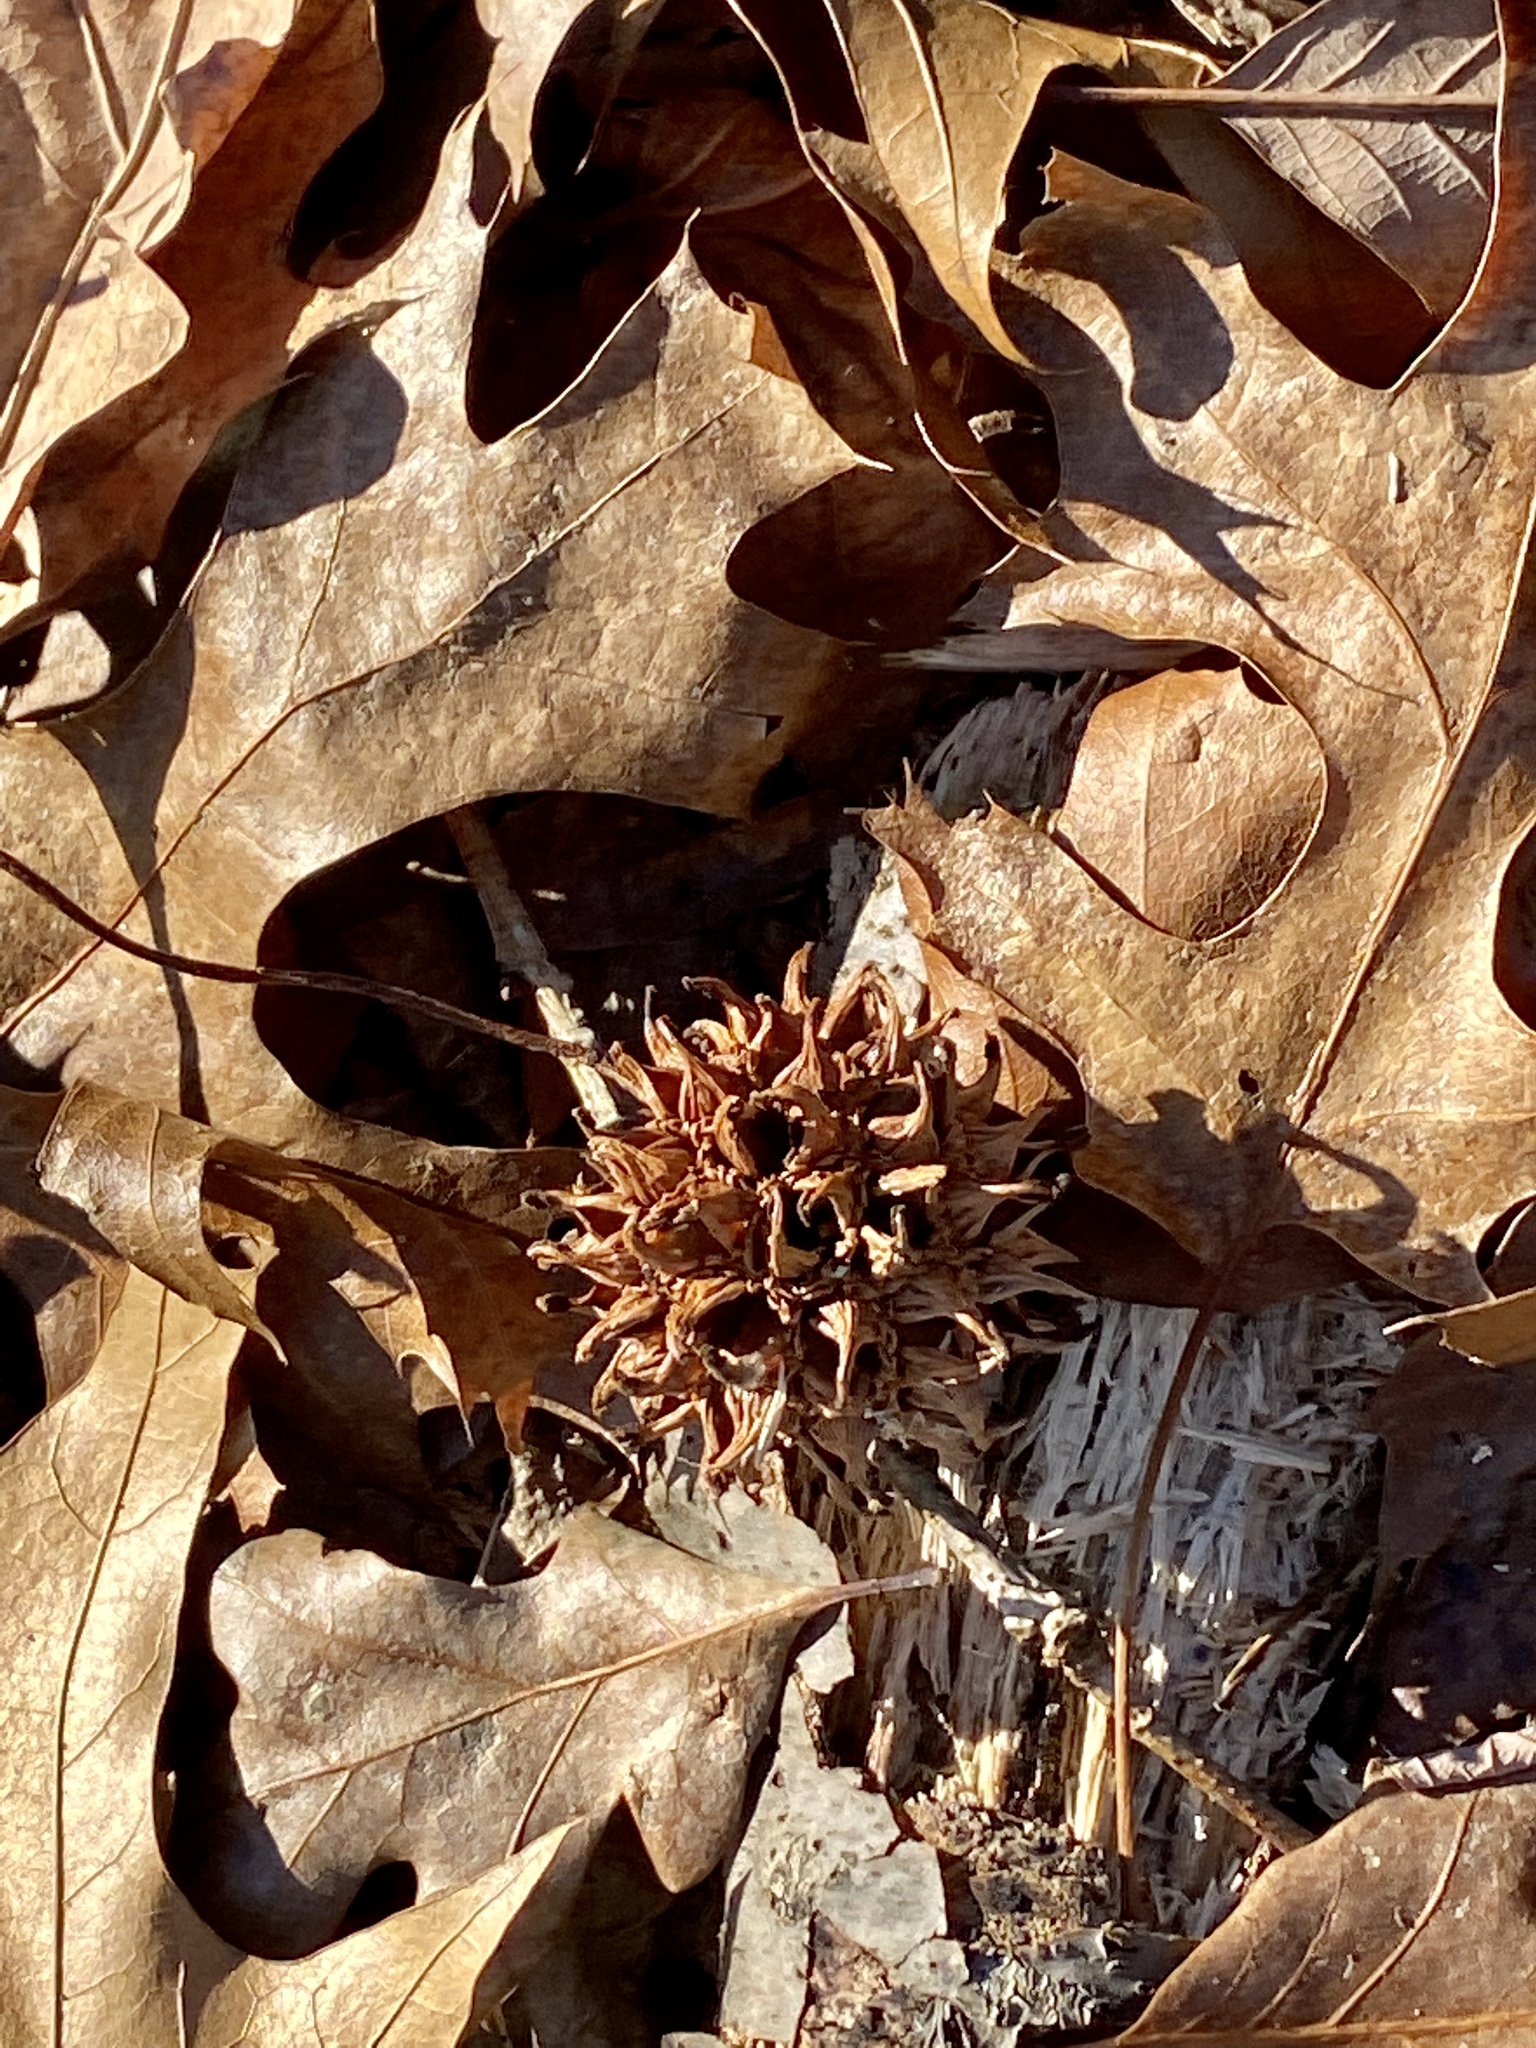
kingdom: Plantae
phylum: Tracheophyta
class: Magnoliopsida
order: Saxifragales
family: Altingiaceae
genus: Liquidambar
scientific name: Liquidambar styraciflua
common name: Sweet gum
